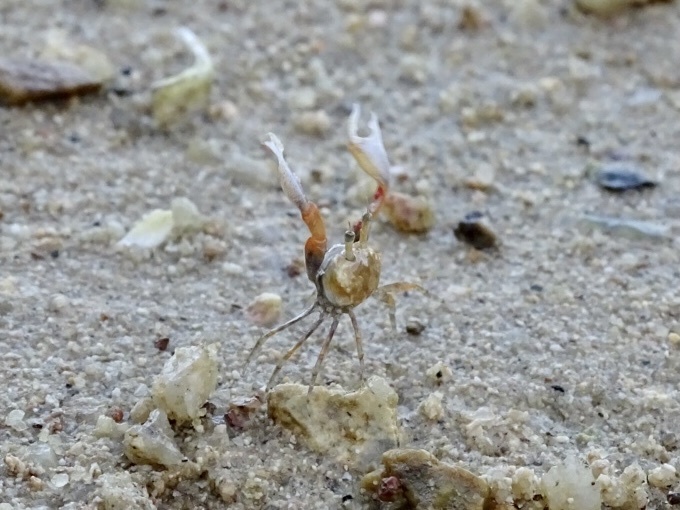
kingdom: Animalia
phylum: Arthropoda
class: Malacostraca
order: Decapoda
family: Dotillidae
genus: Tmethypocoelis
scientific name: Tmethypocoelis ceratophora
